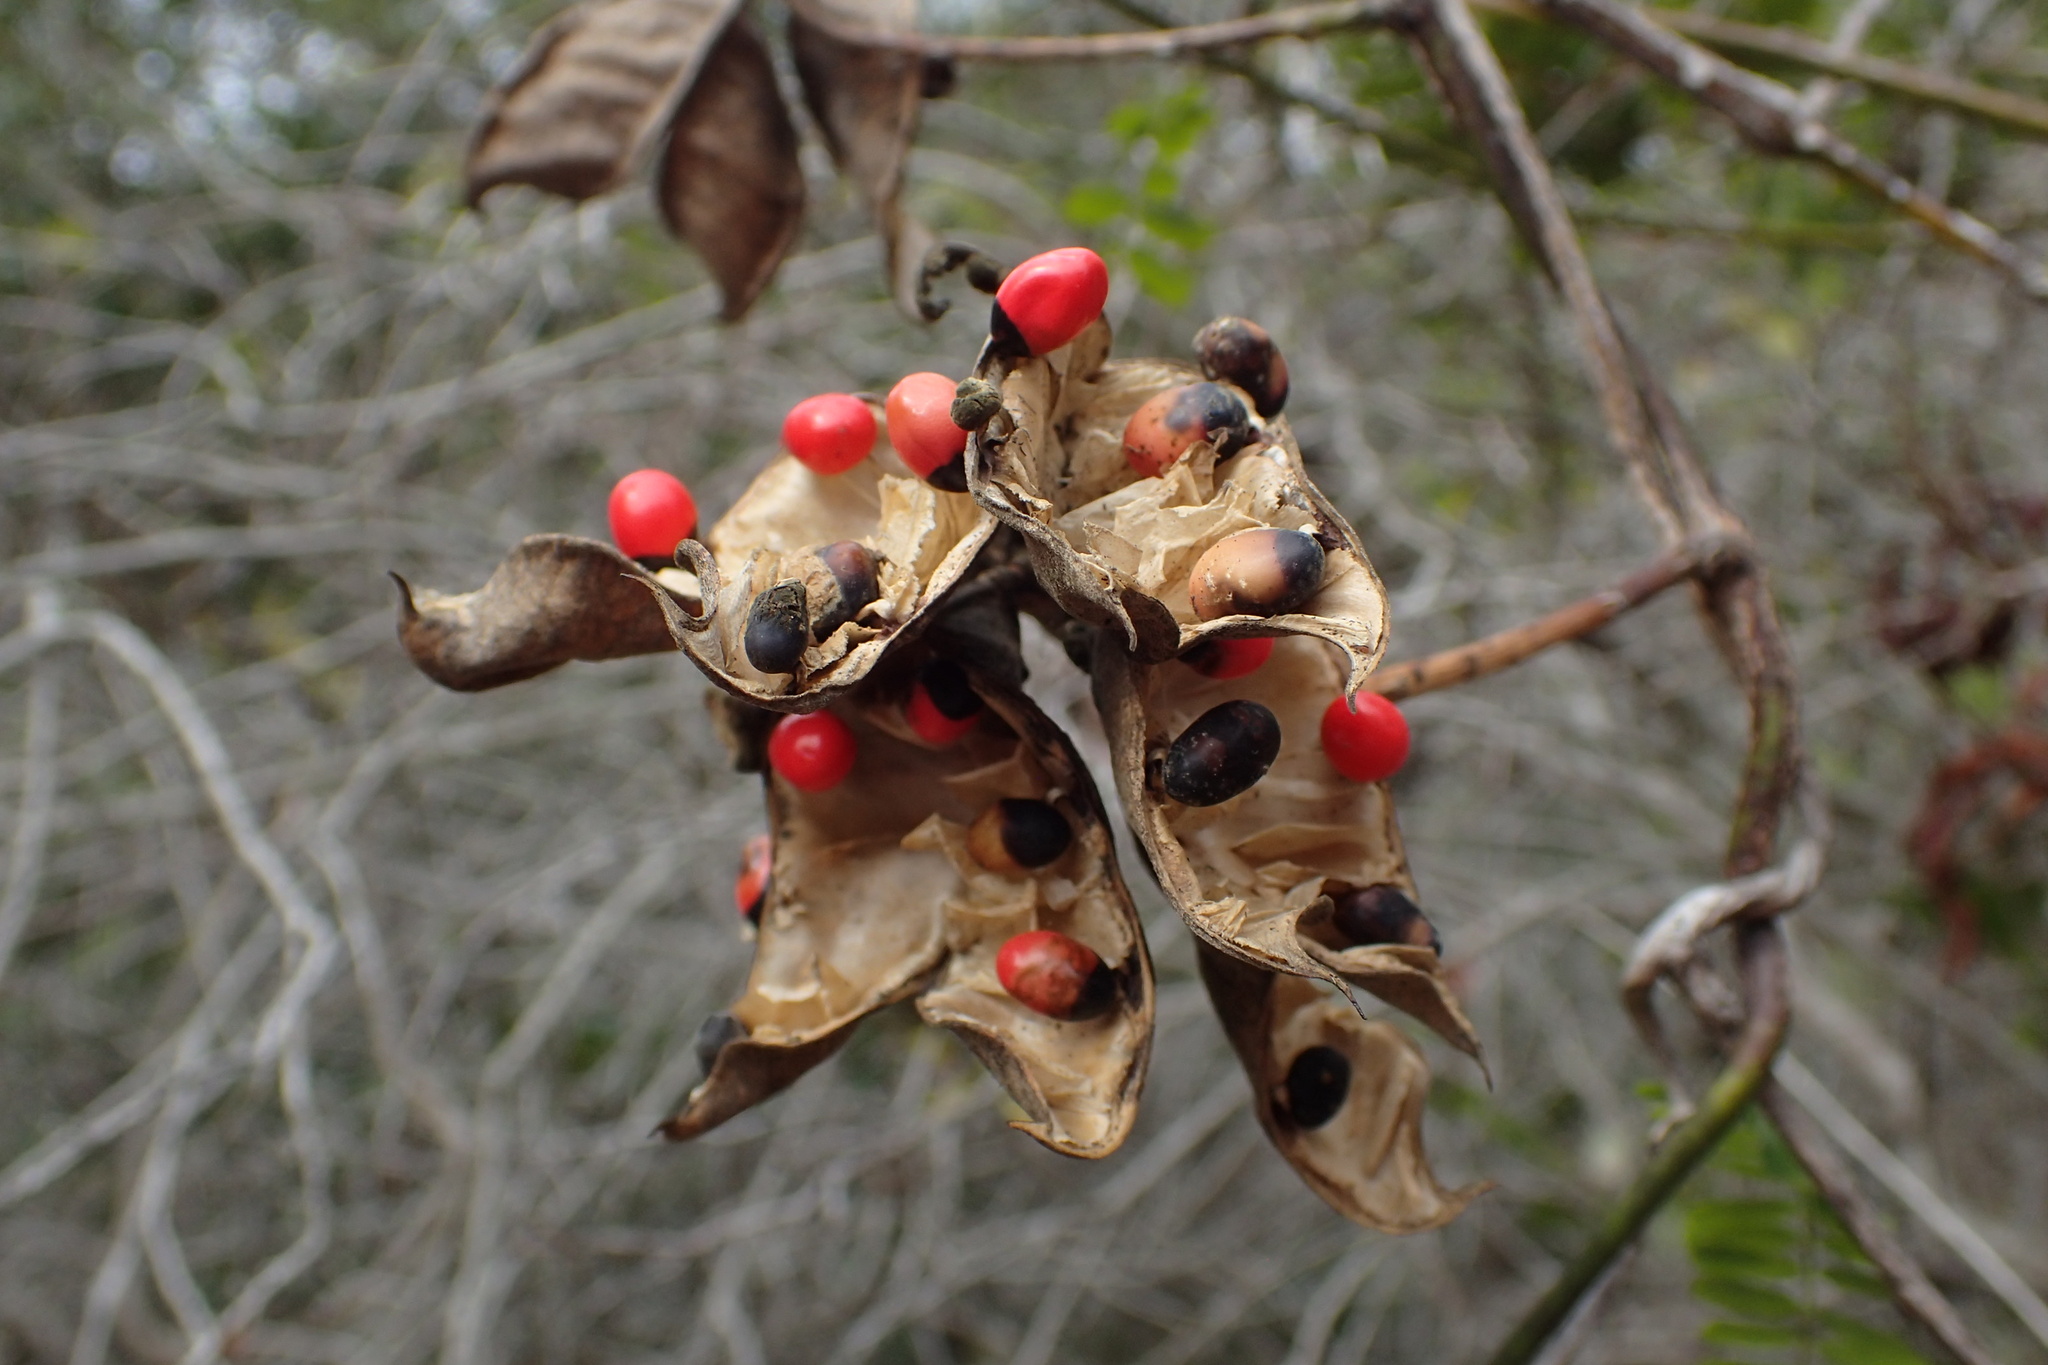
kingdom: Plantae
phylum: Tracheophyta
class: Magnoliopsida
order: Fabales
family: Fabaceae
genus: Abrus
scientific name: Abrus precatorius
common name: Rosarypea
